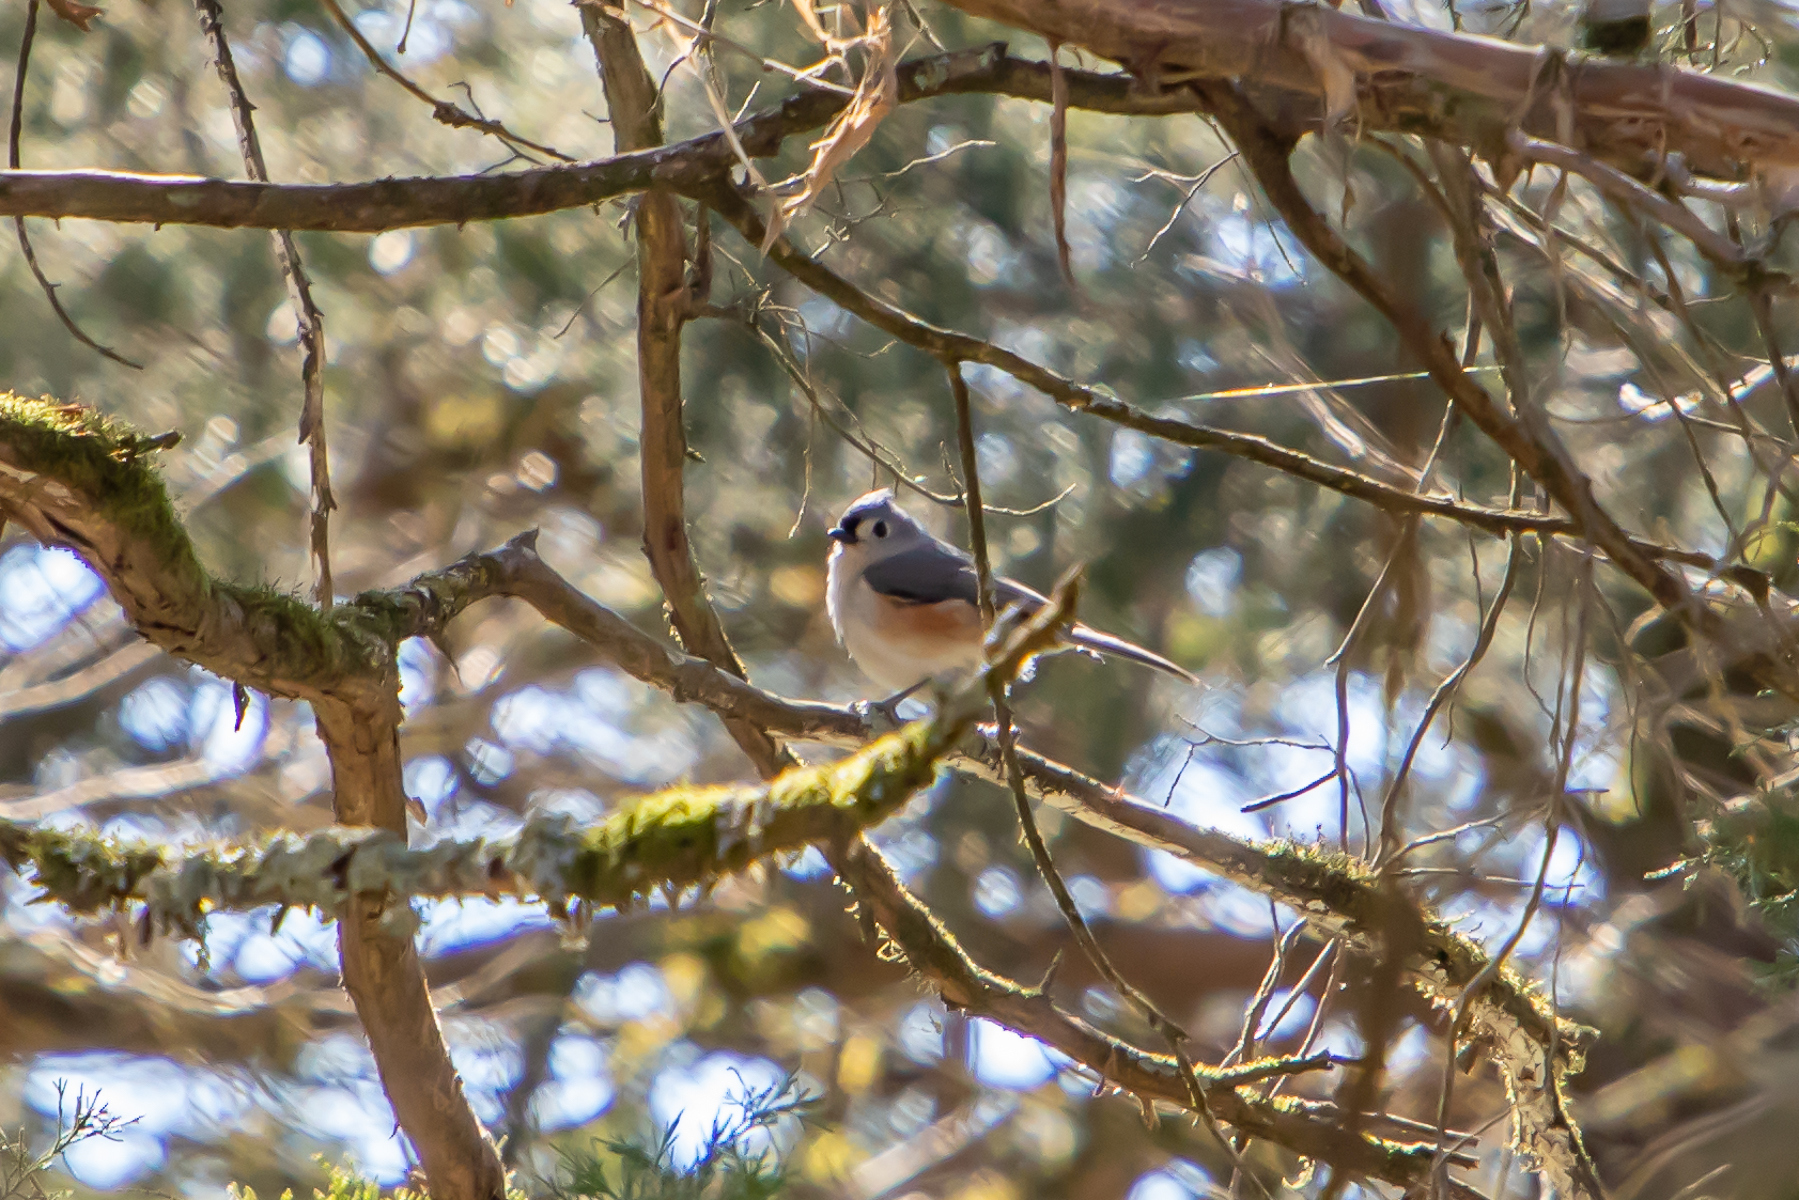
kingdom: Animalia
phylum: Chordata
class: Aves
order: Passeriformes
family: Paridae
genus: Baeolophus
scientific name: Baeolophus bicolor
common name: Tufted titmouse
